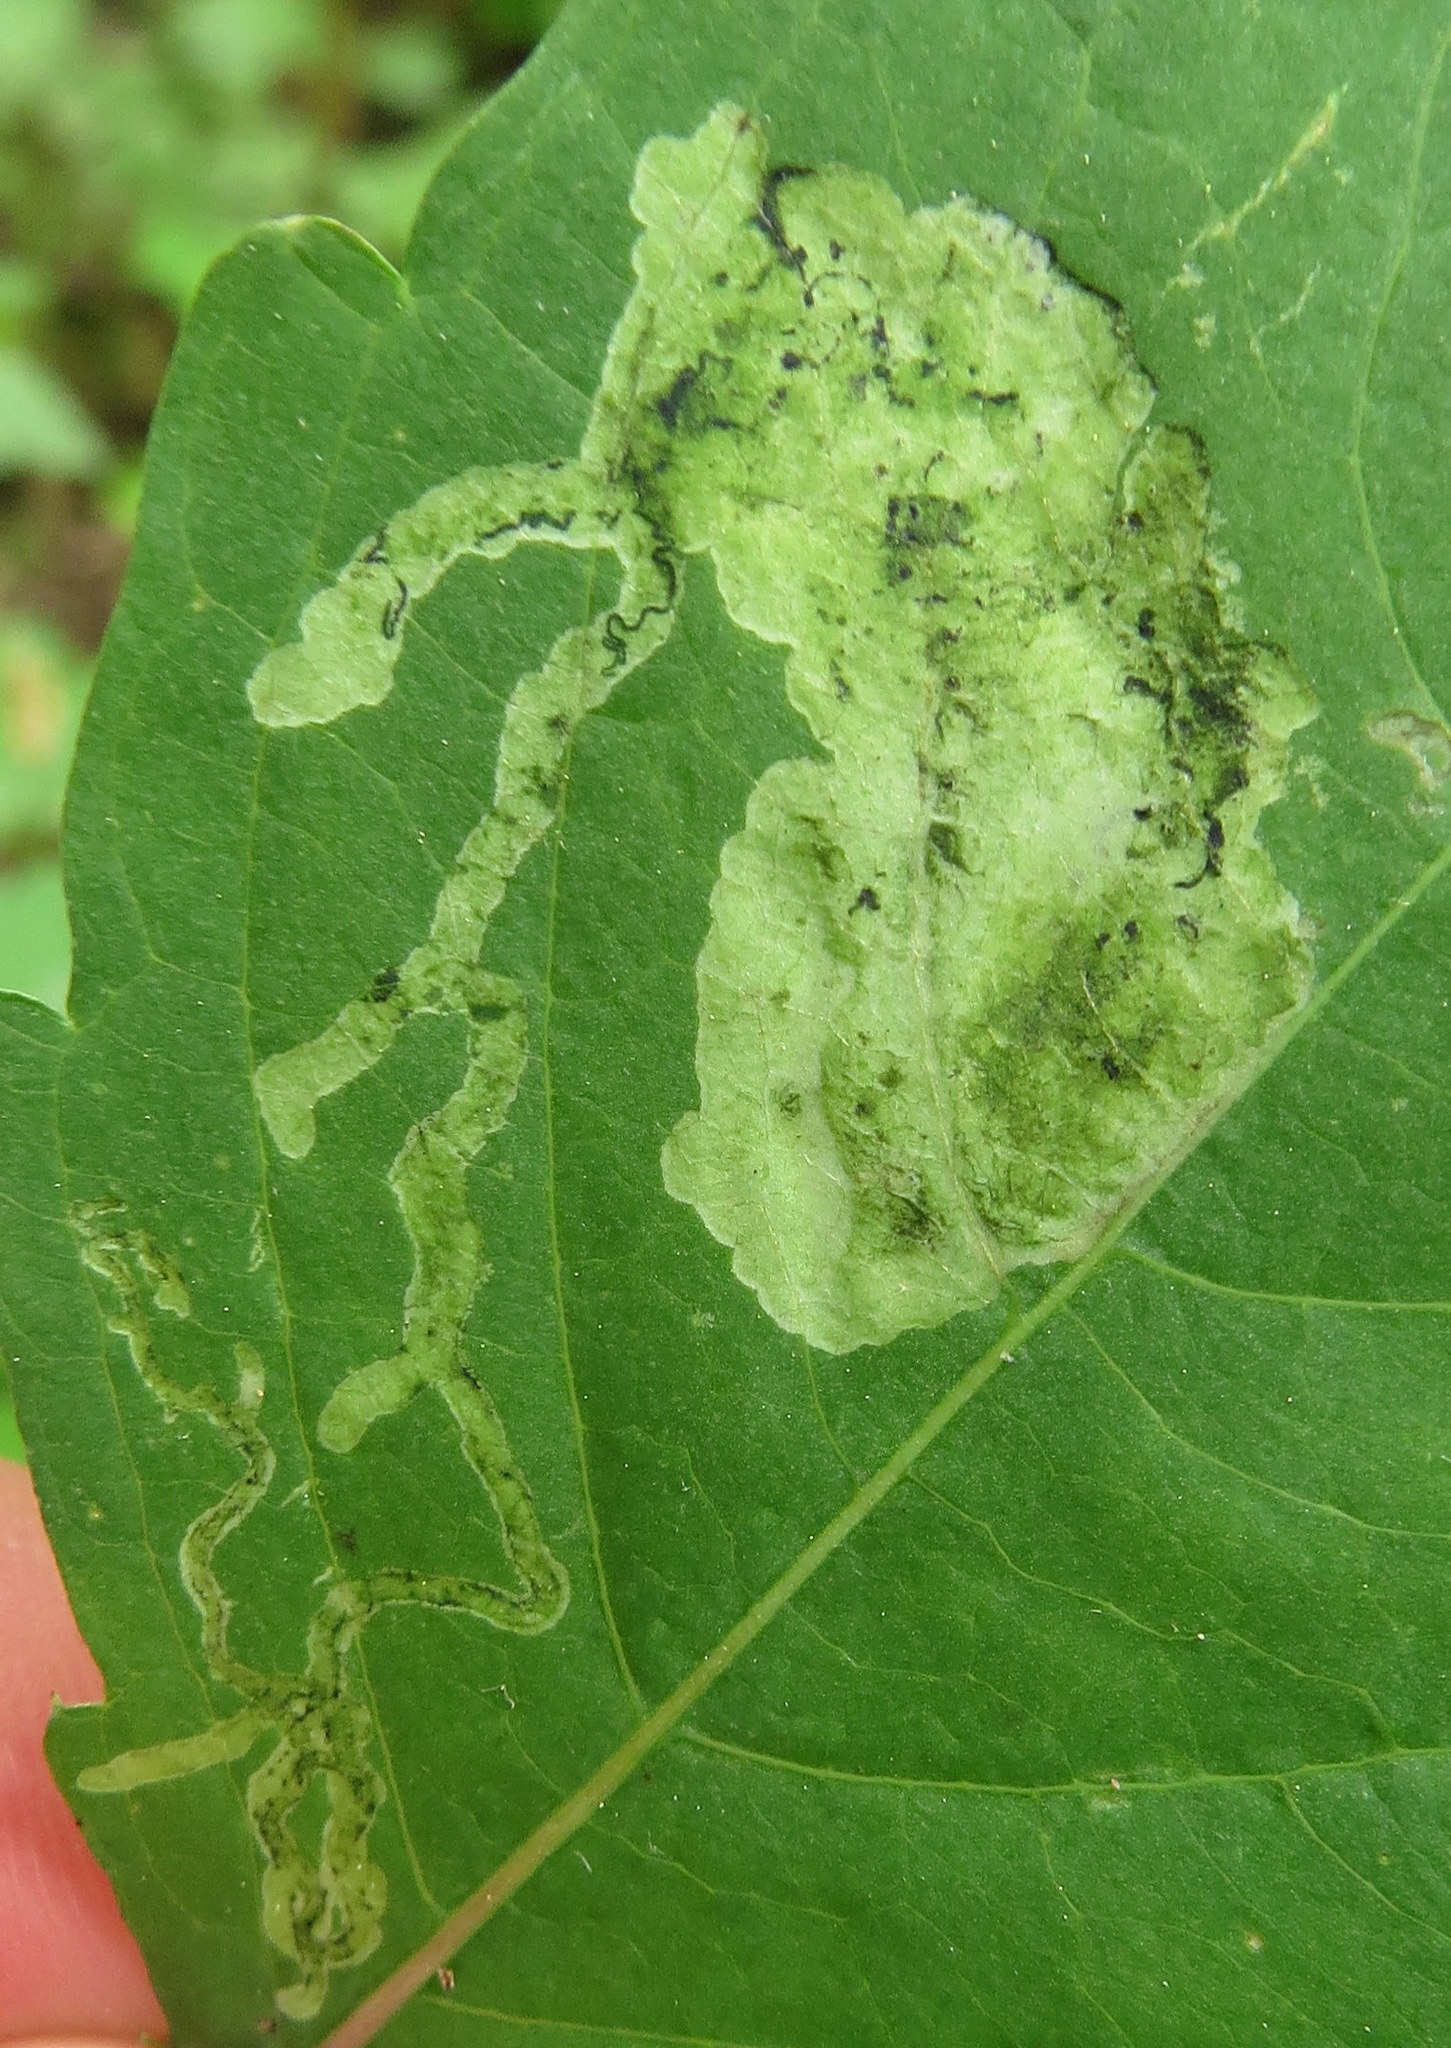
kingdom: Animalia
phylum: Arthropoda
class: Insecta
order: Diptera
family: Agromyzidae
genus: Phytoliriomyza
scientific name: Phytoliriomyza melampyga
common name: Jewelweed leaf-miner fly
